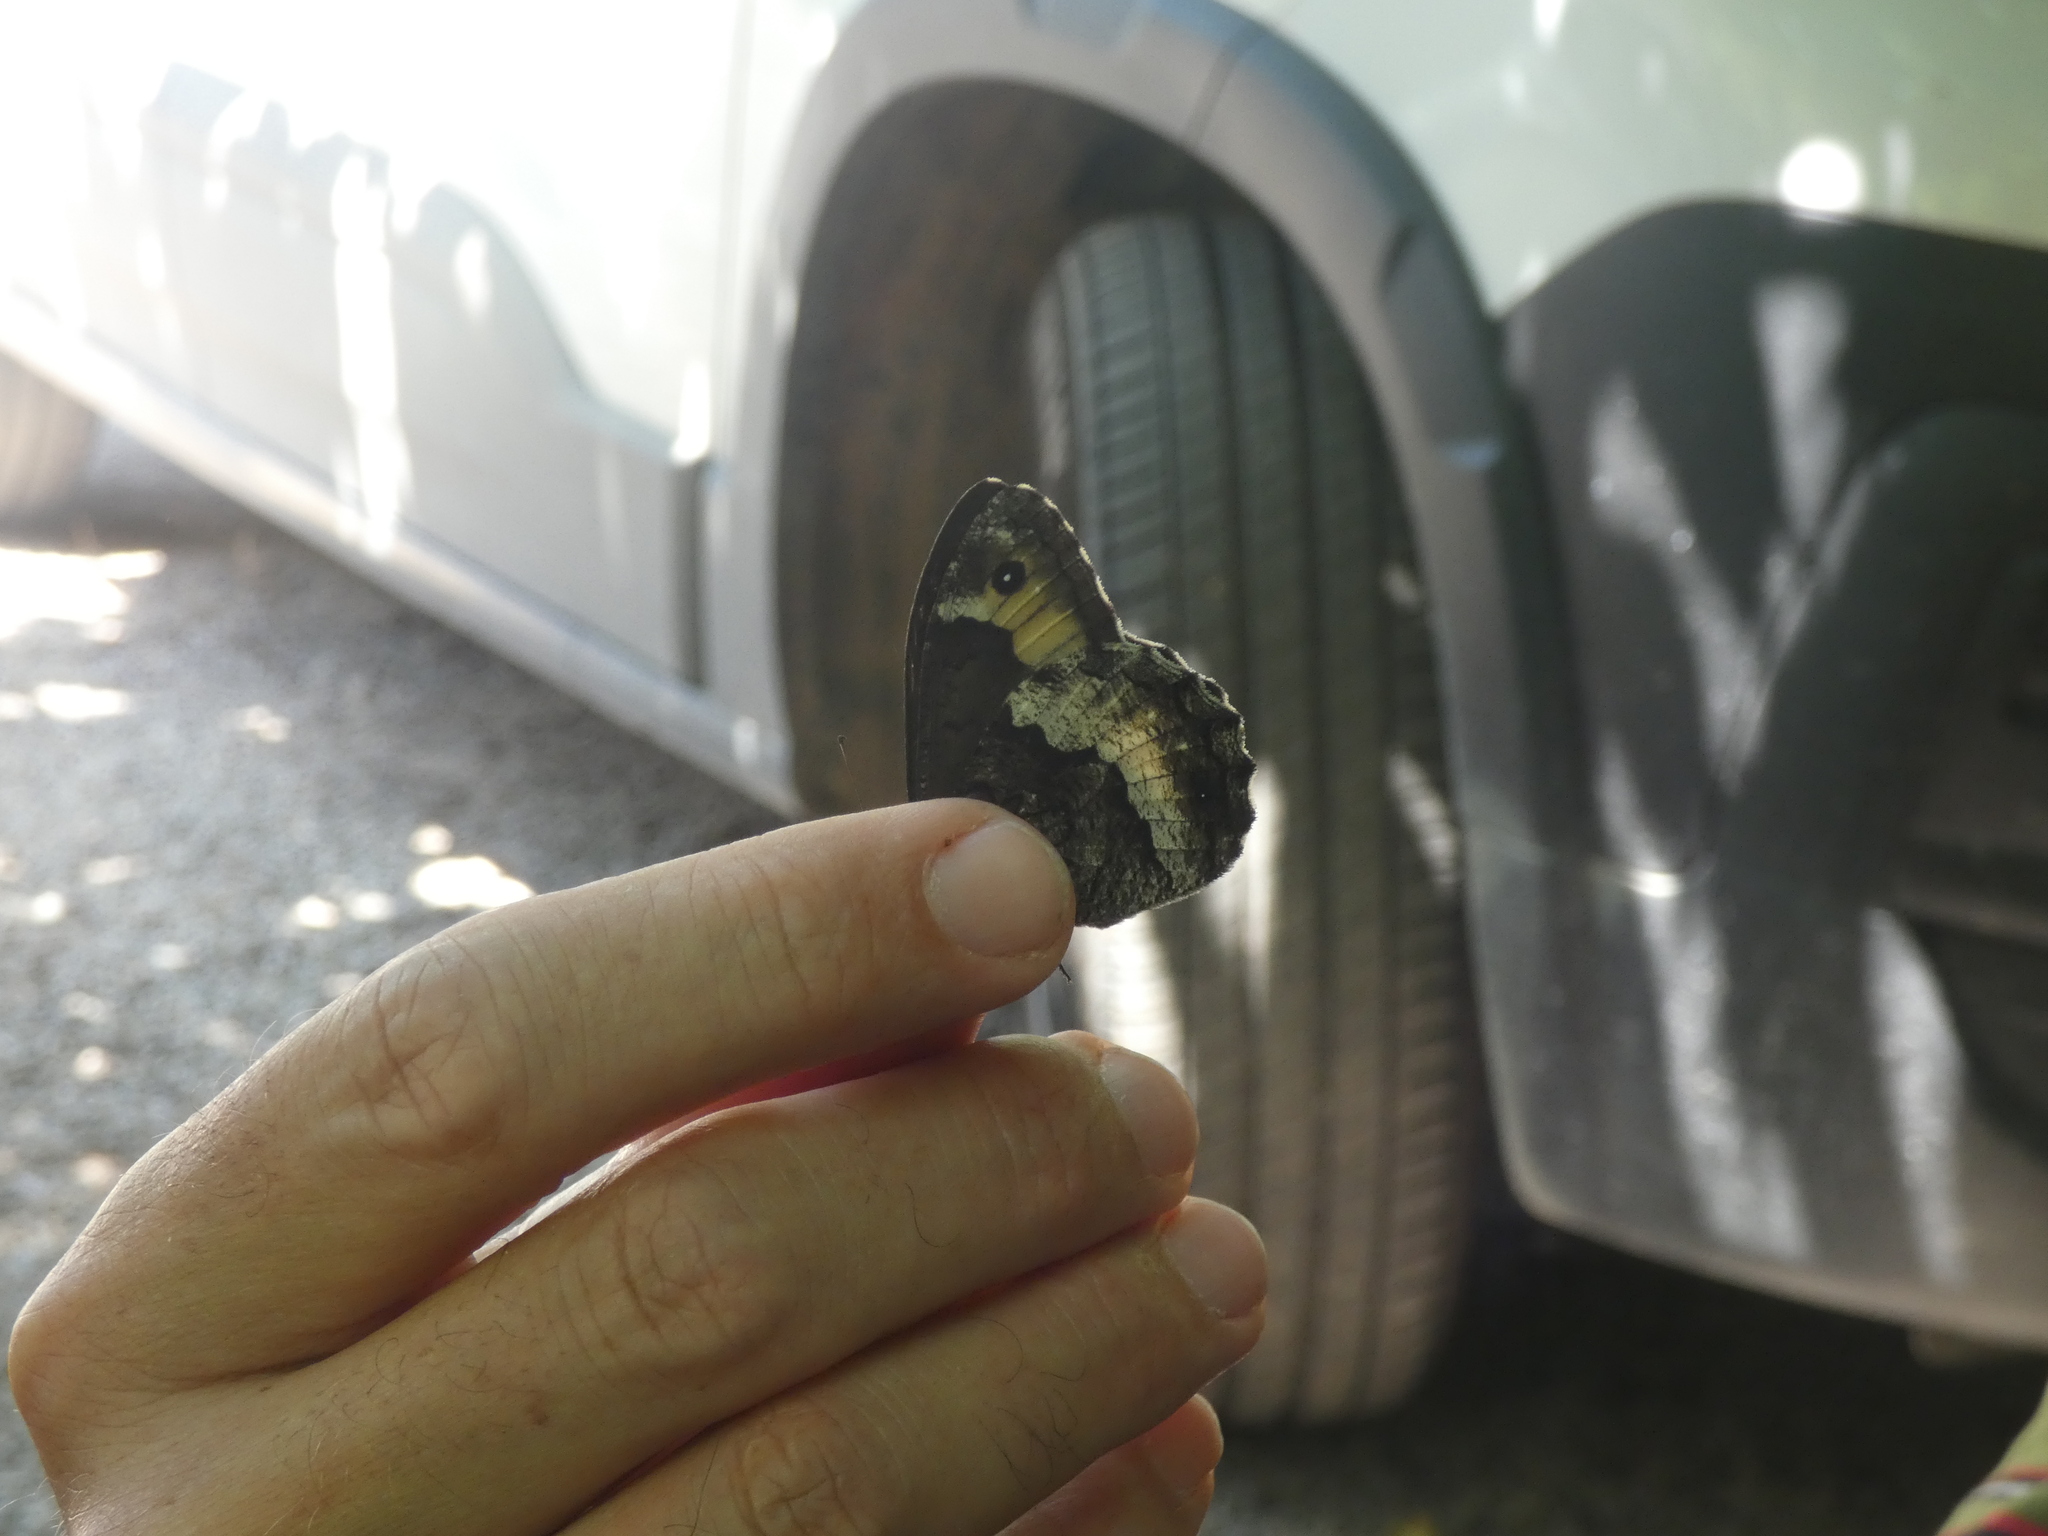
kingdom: Animalia
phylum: Arthropoda
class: Insecta
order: Lepidoptera
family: Nymphalidae
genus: Hipparchia
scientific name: Hipparchia fagi
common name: Woodland grayling
